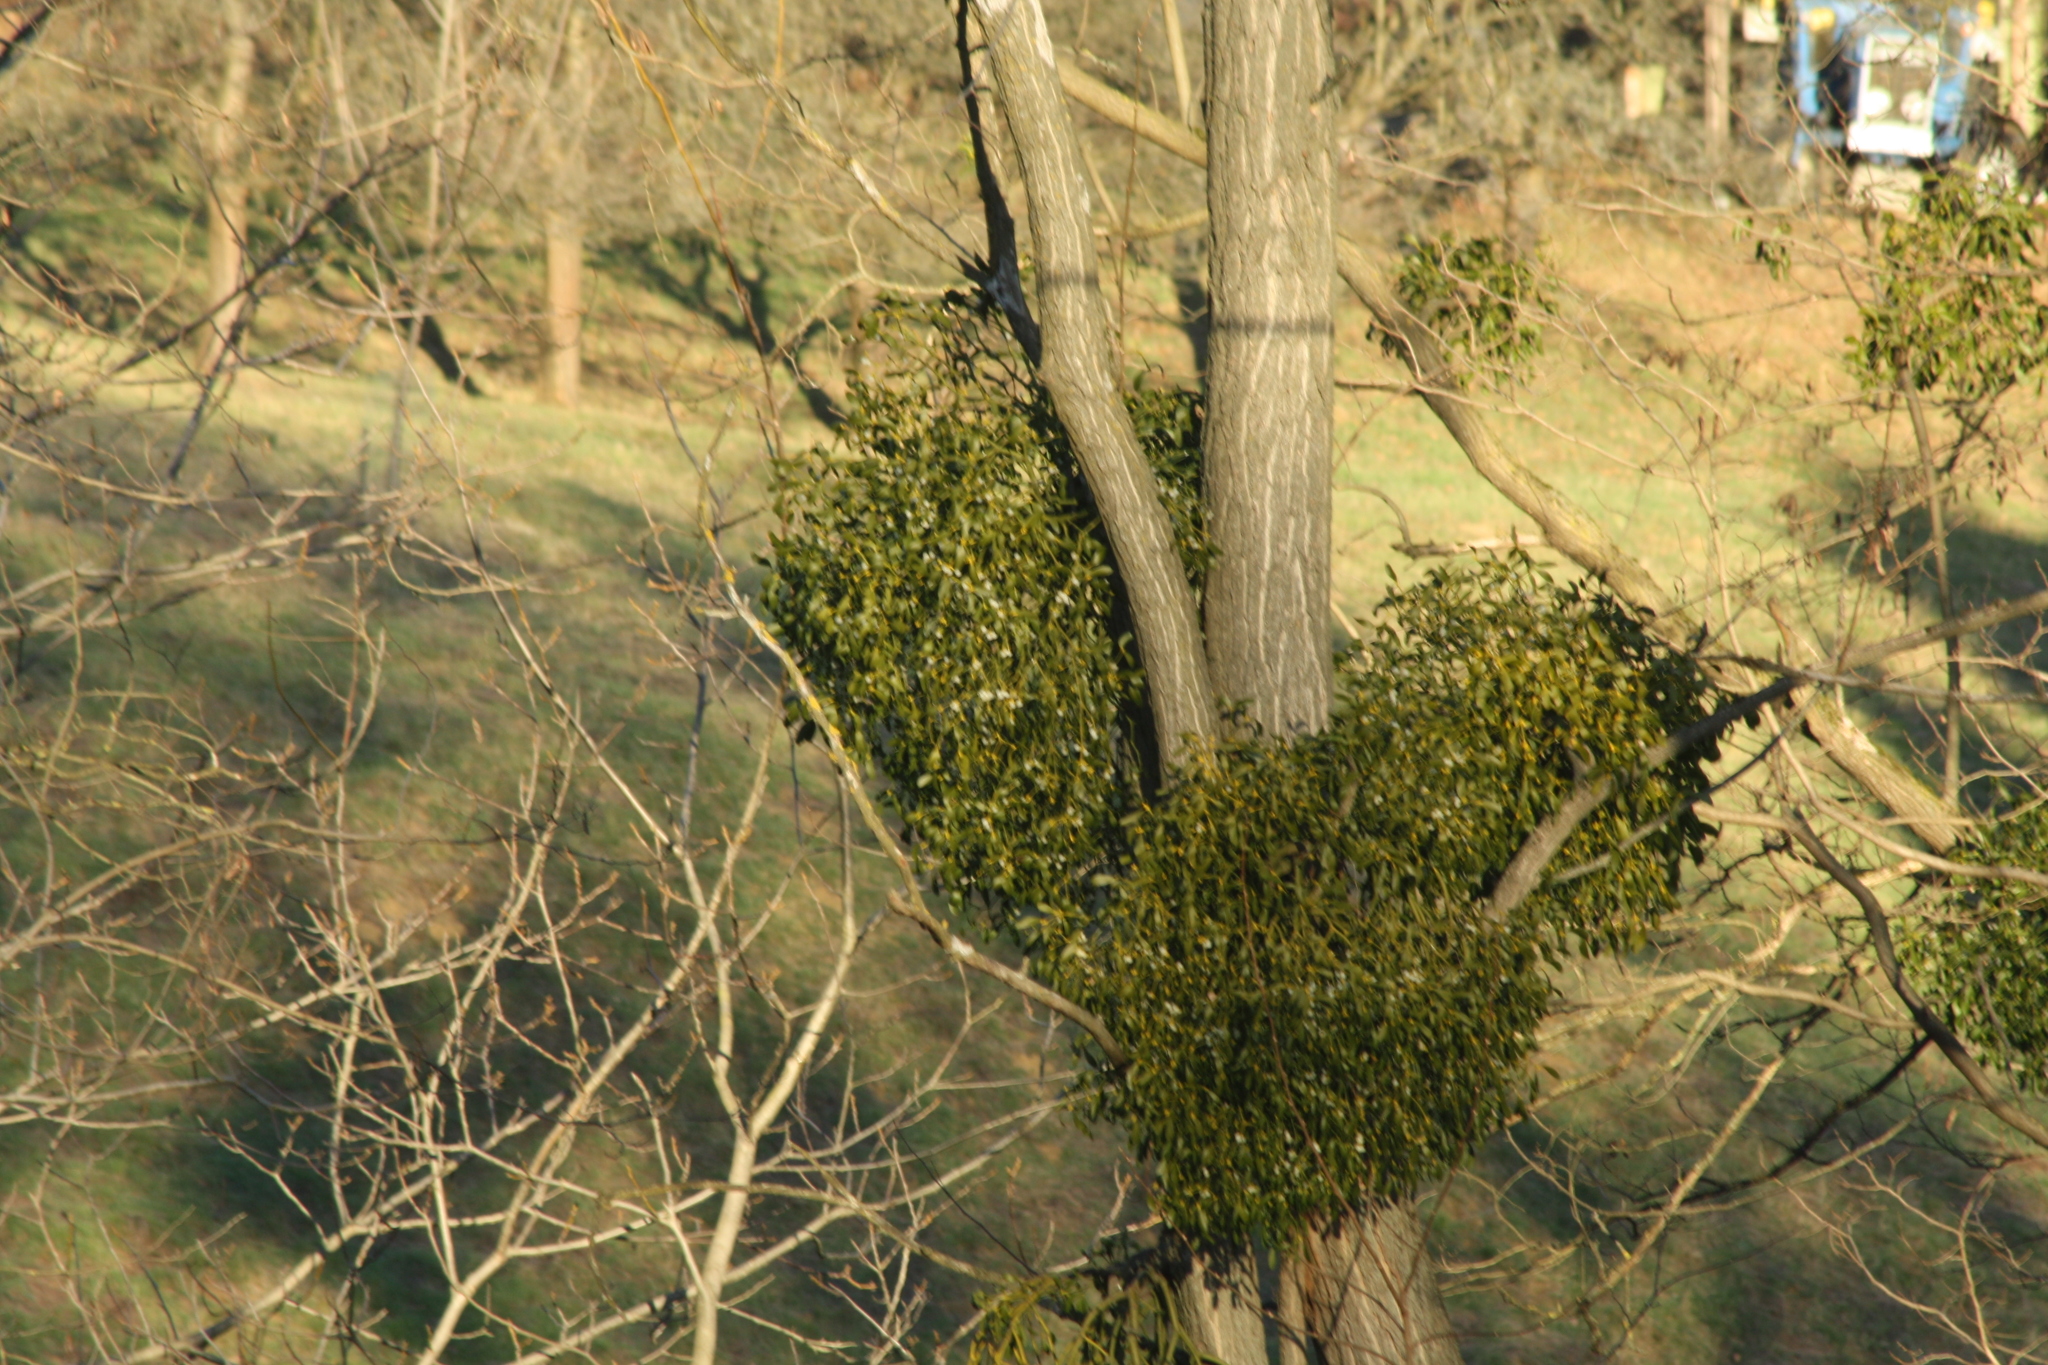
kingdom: Plantae
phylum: Tracheophyta
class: Magnoliopsida
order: Santalales
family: Viscaceae
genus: Viscum
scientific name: Viscum album
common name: Mistletoe
